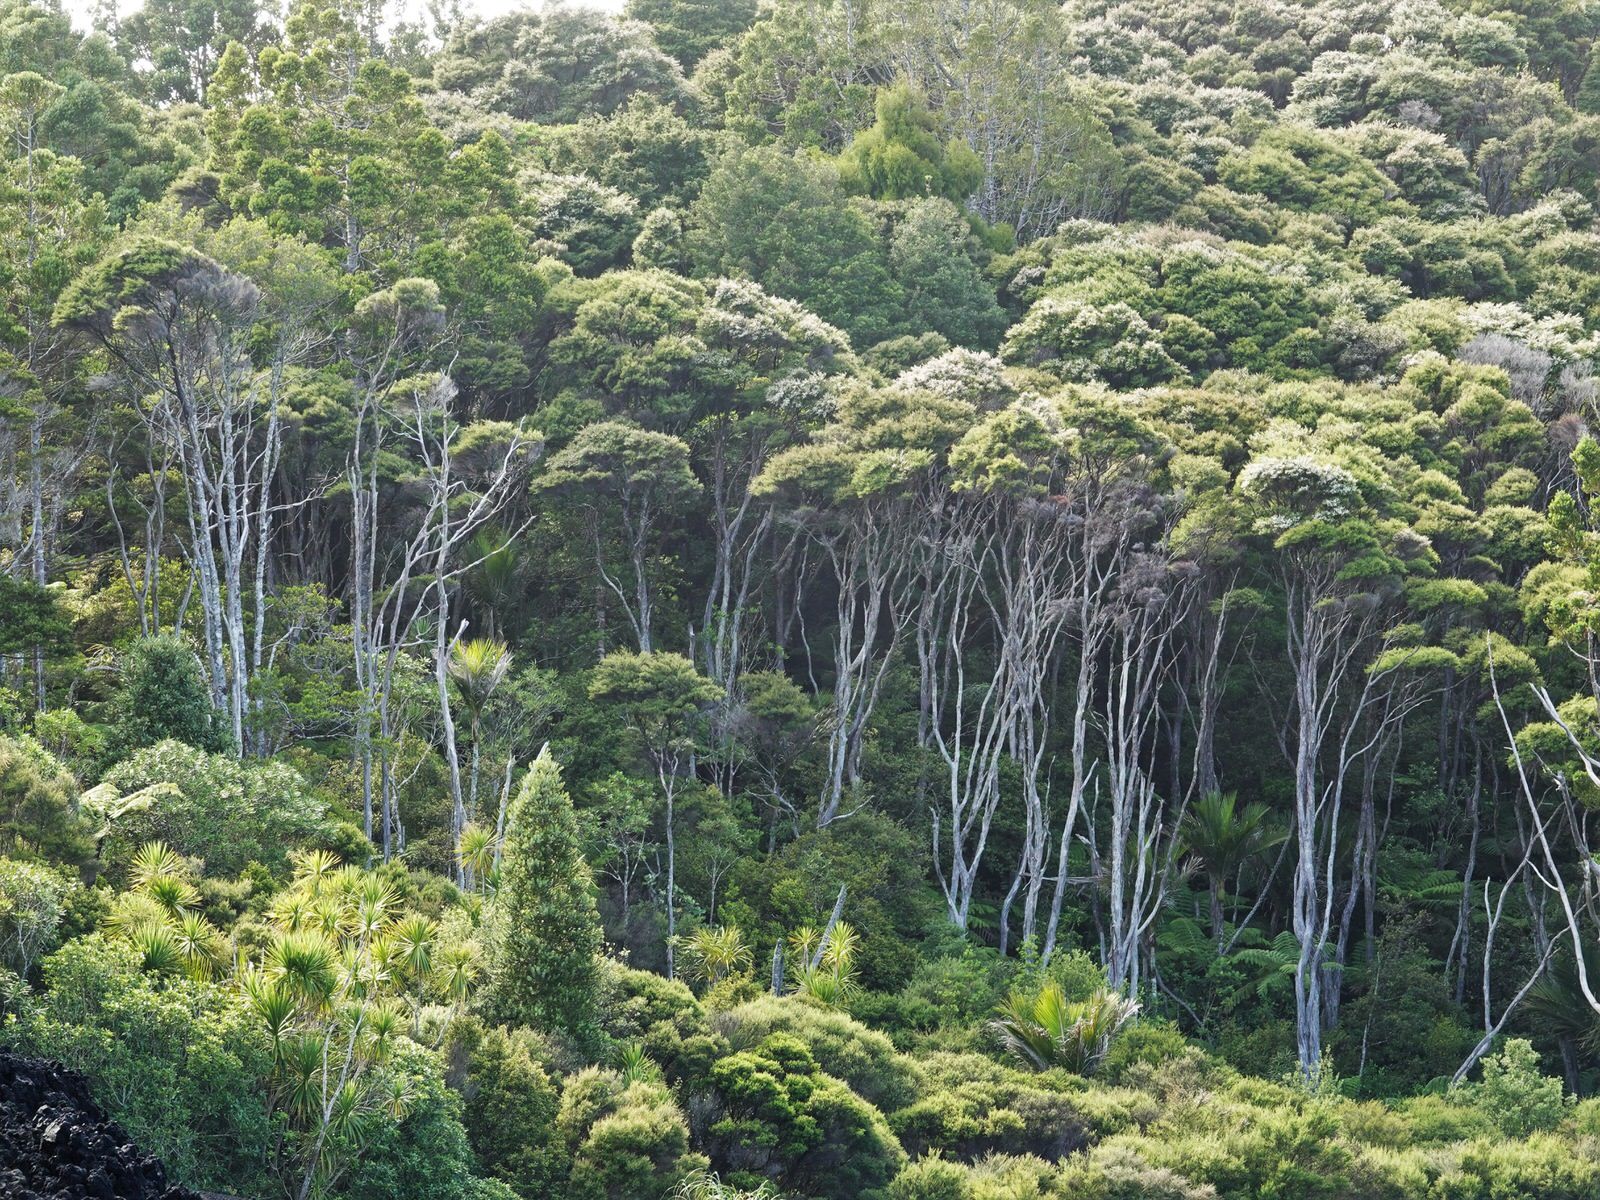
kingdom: Plantae
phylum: Tracheophyta
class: Magnoliopsida
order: Myrtales
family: Myrtaceae
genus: Kunzea
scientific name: Kunzea robusta
